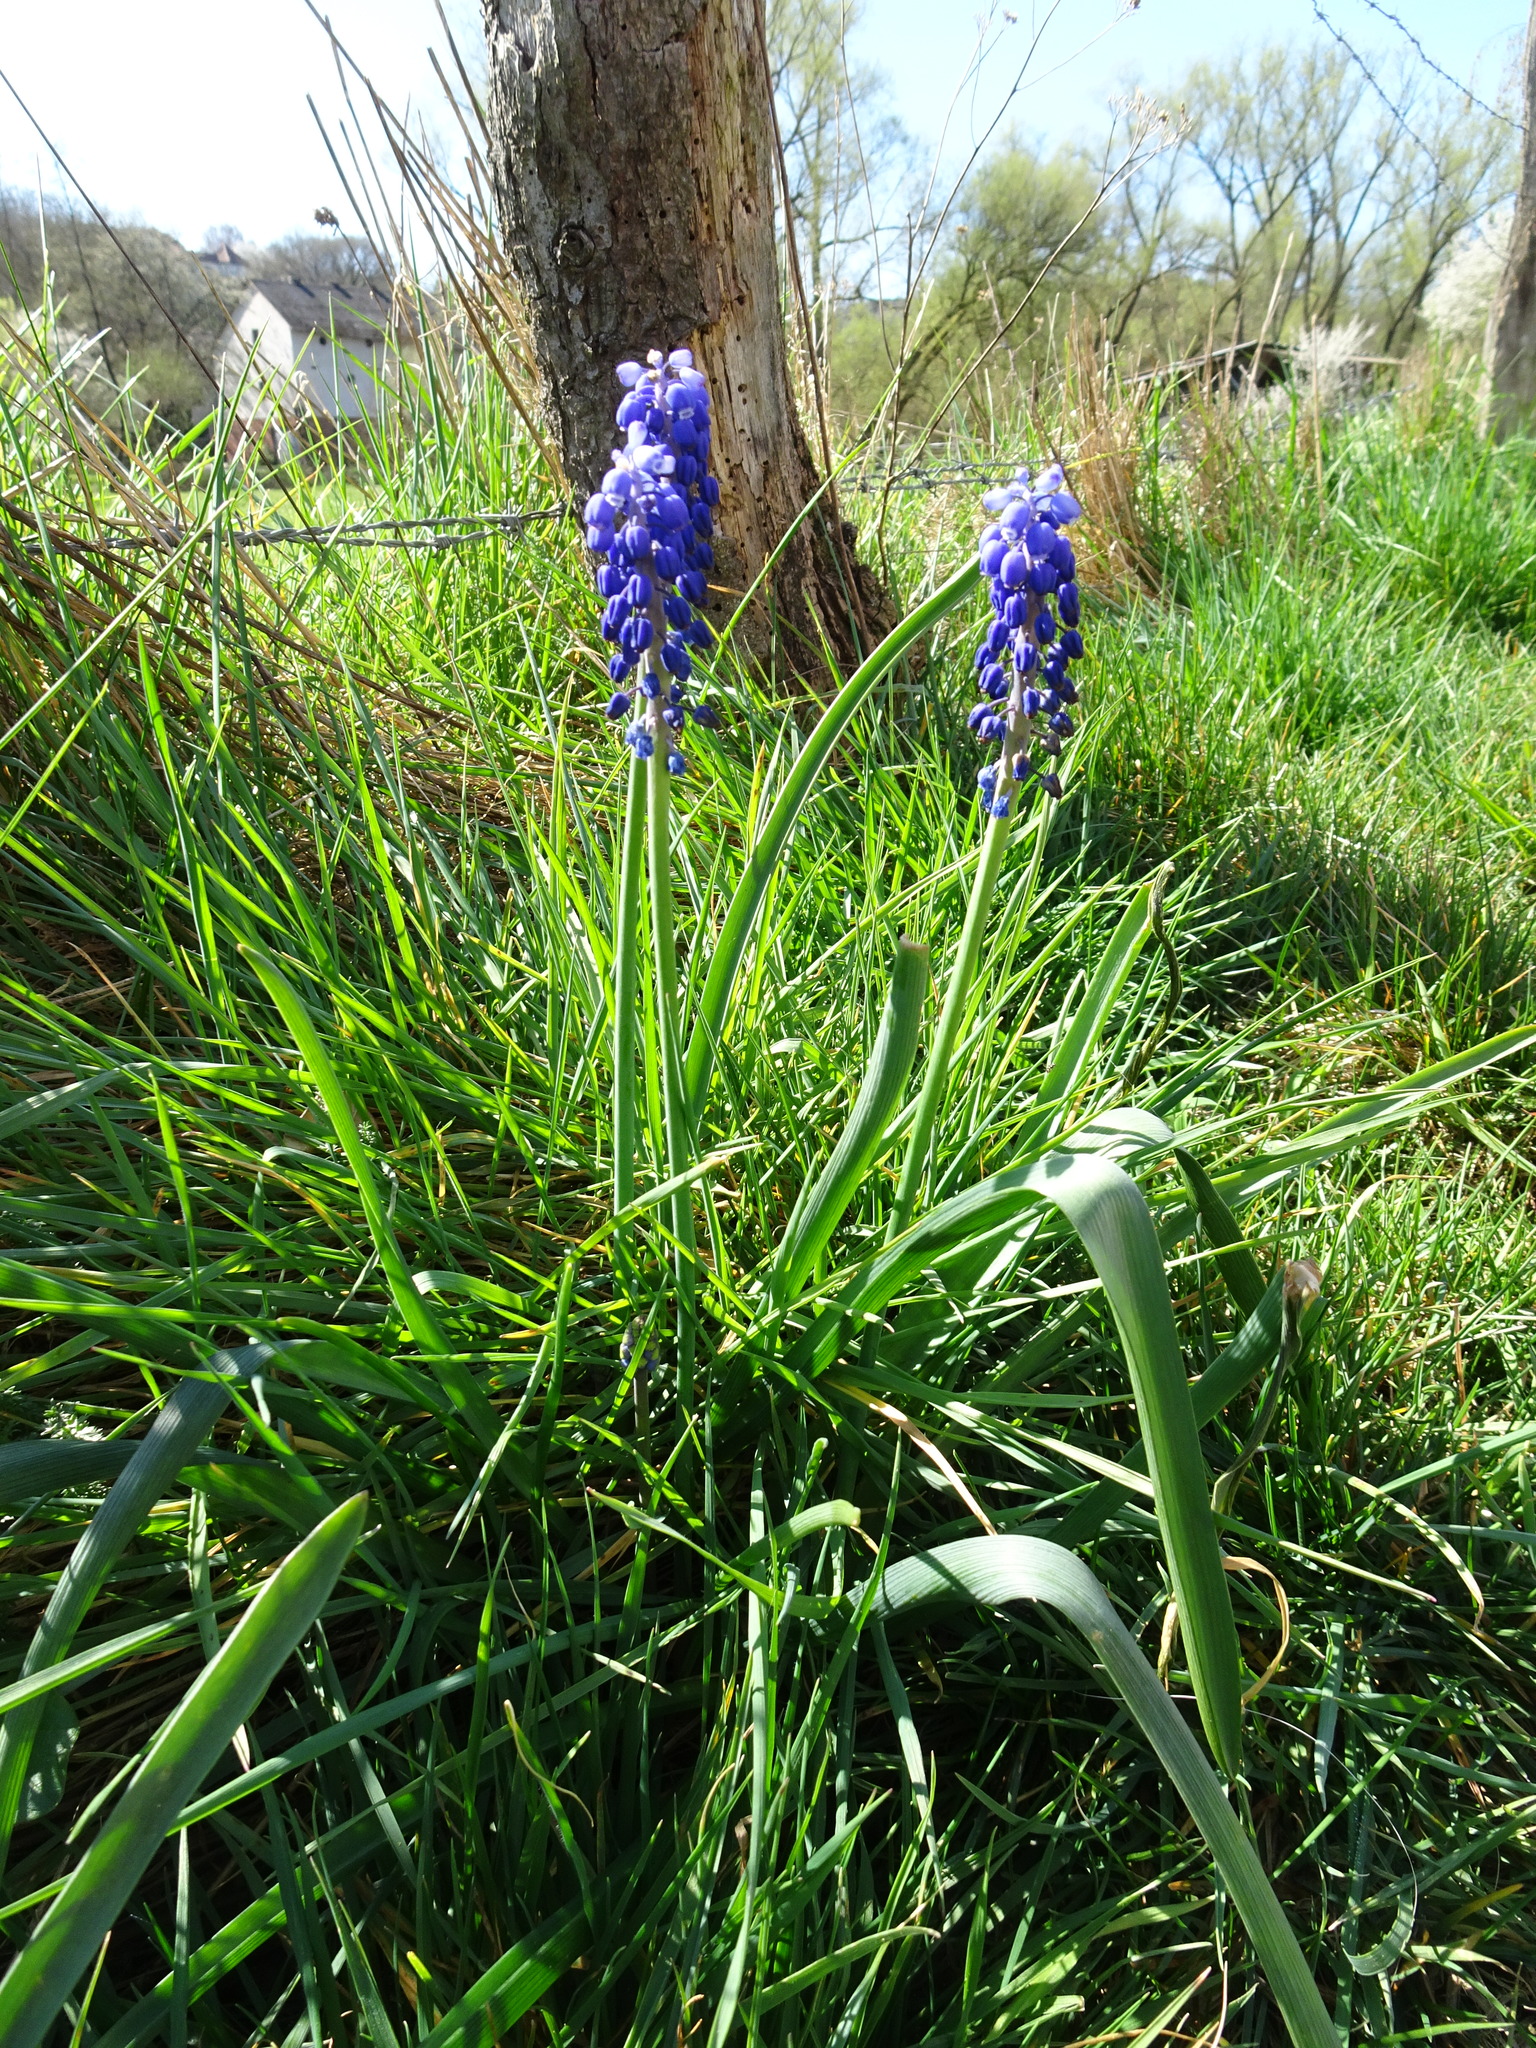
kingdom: Plantae
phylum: Tracheophyta
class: Liliopsida
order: Asparagales
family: Asparagaceae
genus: Muscari
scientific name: Muscari botryoides
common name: Compact grape-hyacinth
